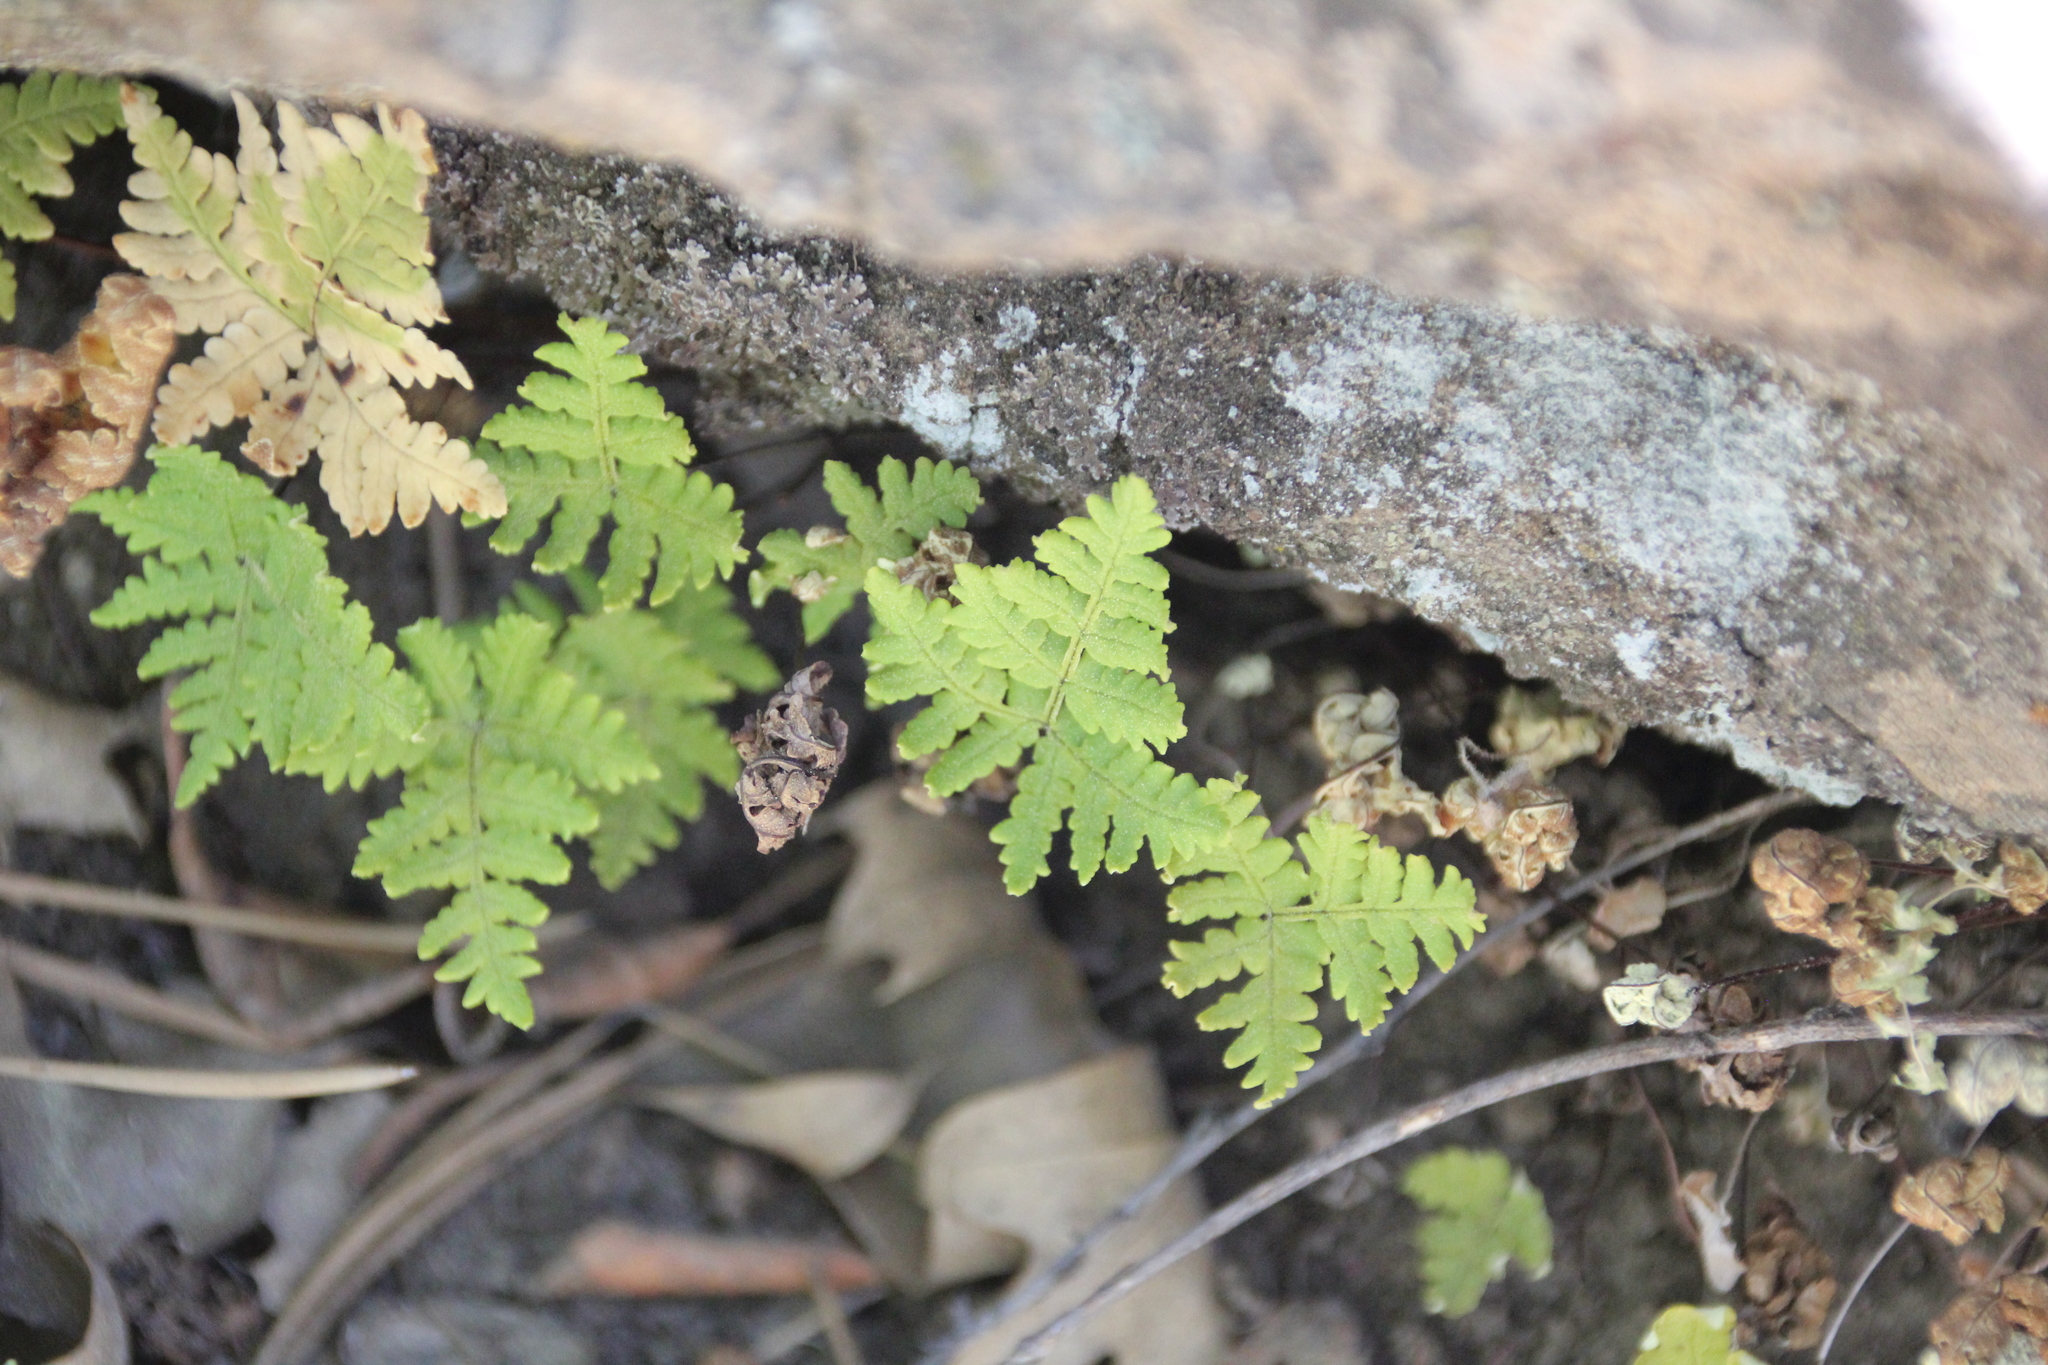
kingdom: Plantae
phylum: Tracheophyta
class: Polypodiopsida
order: Polypodiales
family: Pteridaceae
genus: Pentagramma
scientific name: Pentagramma rebmanii
